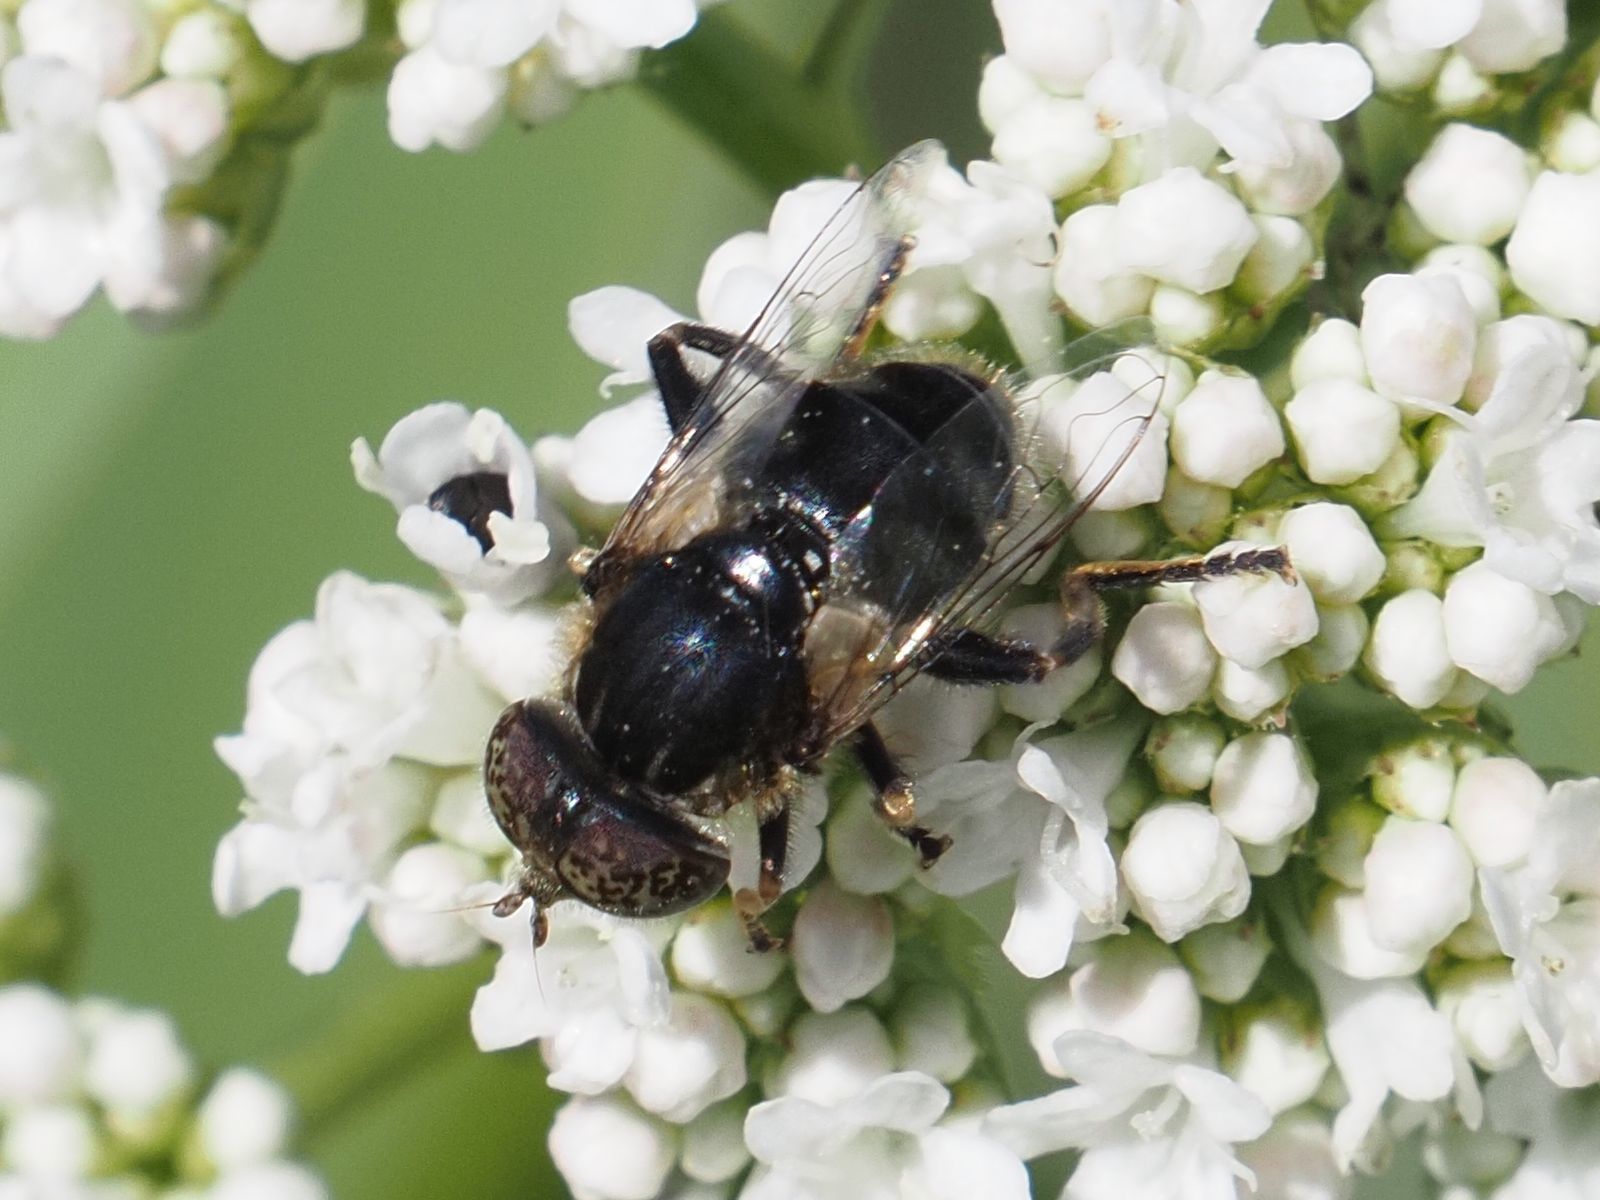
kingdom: Animalia
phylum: Arthropoda
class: Insecta
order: Diptera
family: Syrphidae
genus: Eristalinus
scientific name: Eristalinus sepulchralis
